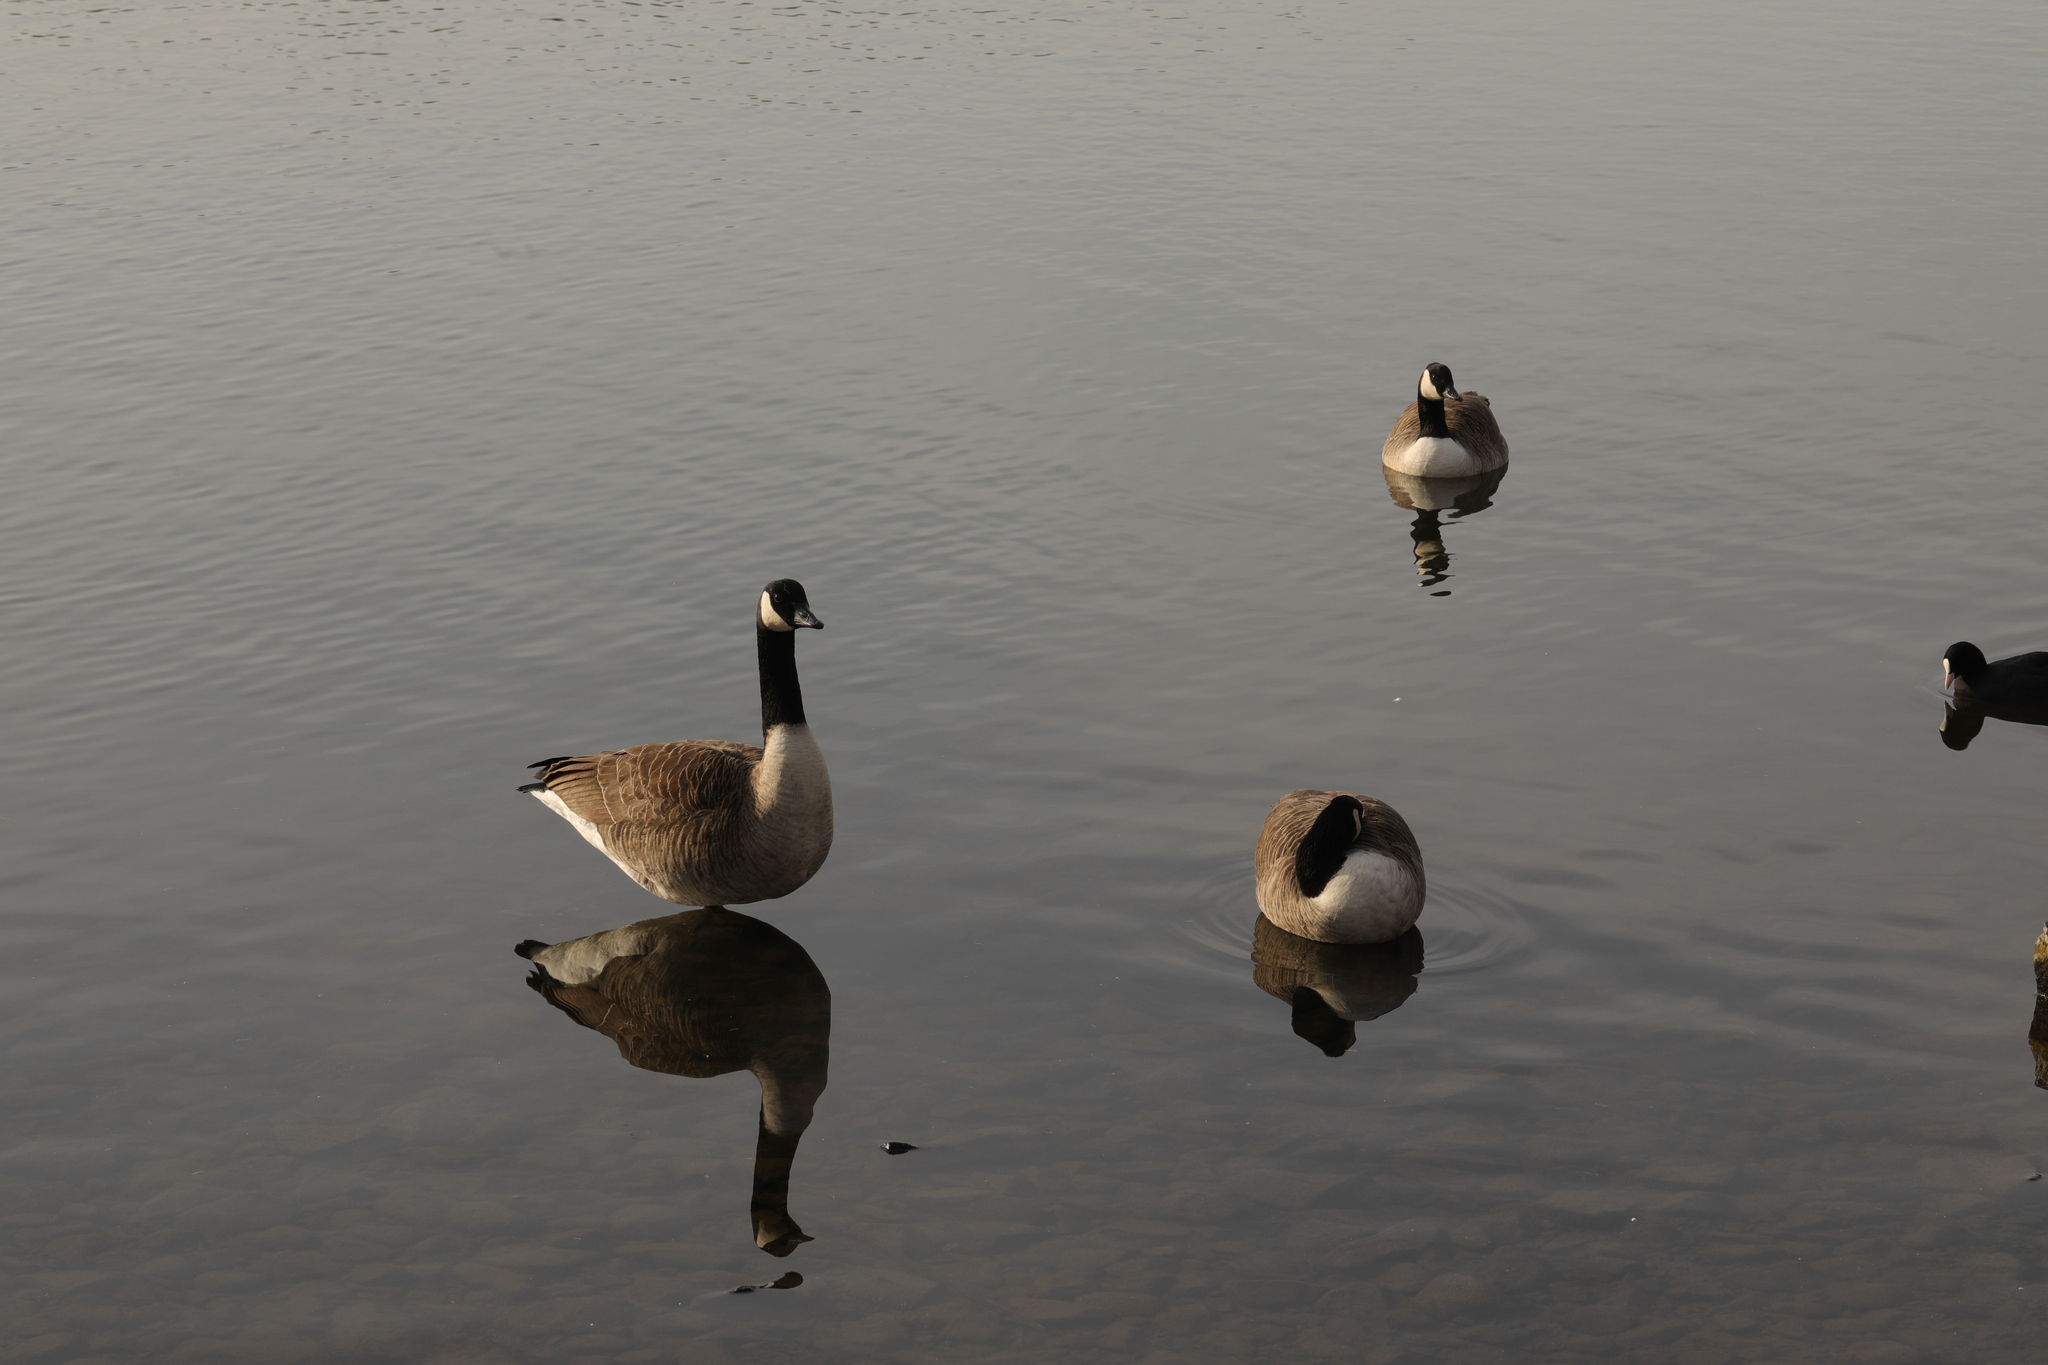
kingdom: Animalia
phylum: Chordata
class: Aves
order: Anseriformes
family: Anatidae
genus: Branta
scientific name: Branta canadensis
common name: Canada goose
